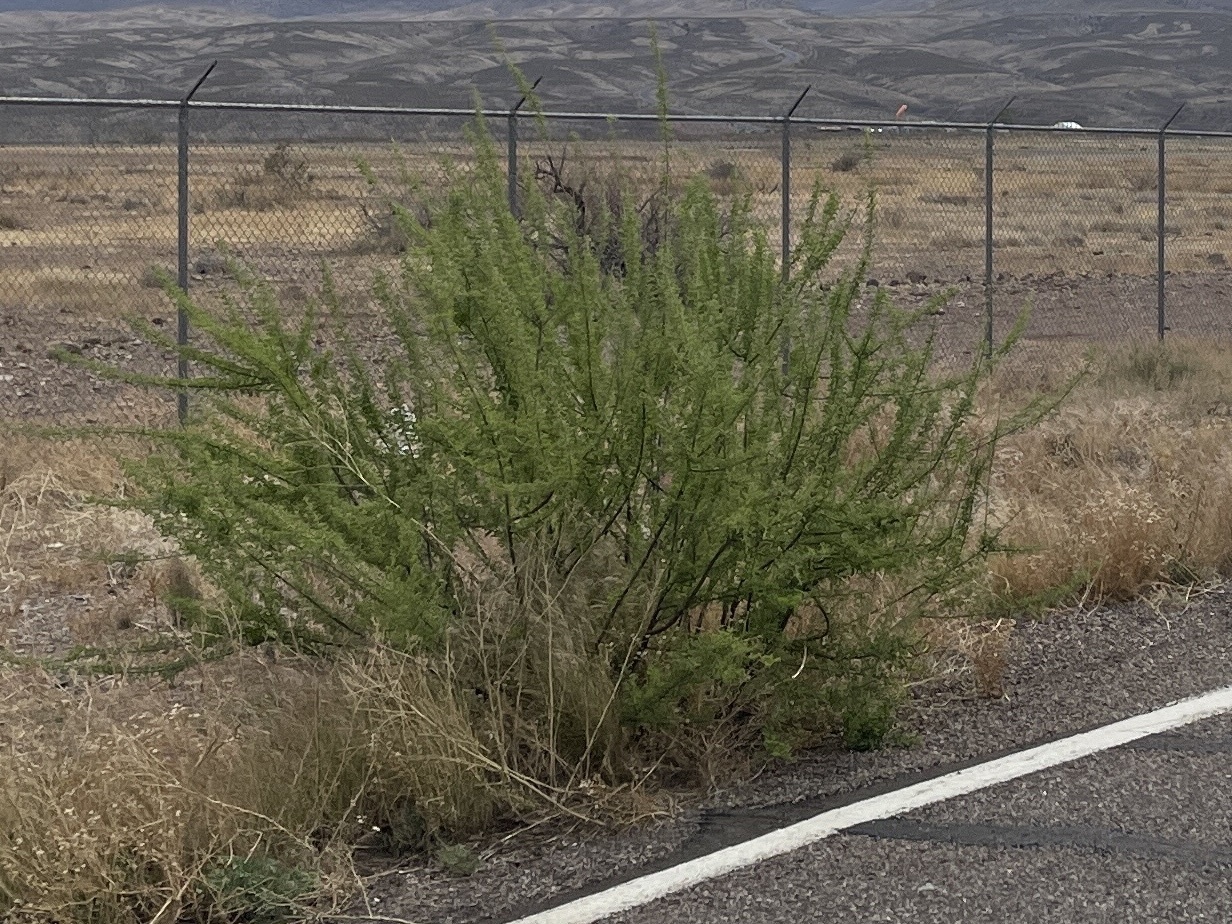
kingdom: Plantae
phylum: Tracheophyta
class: Magnoliopsida
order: Fabales
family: Fabaceae
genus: Senegalia
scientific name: Senegalia greggii
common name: Texas-mimosa
